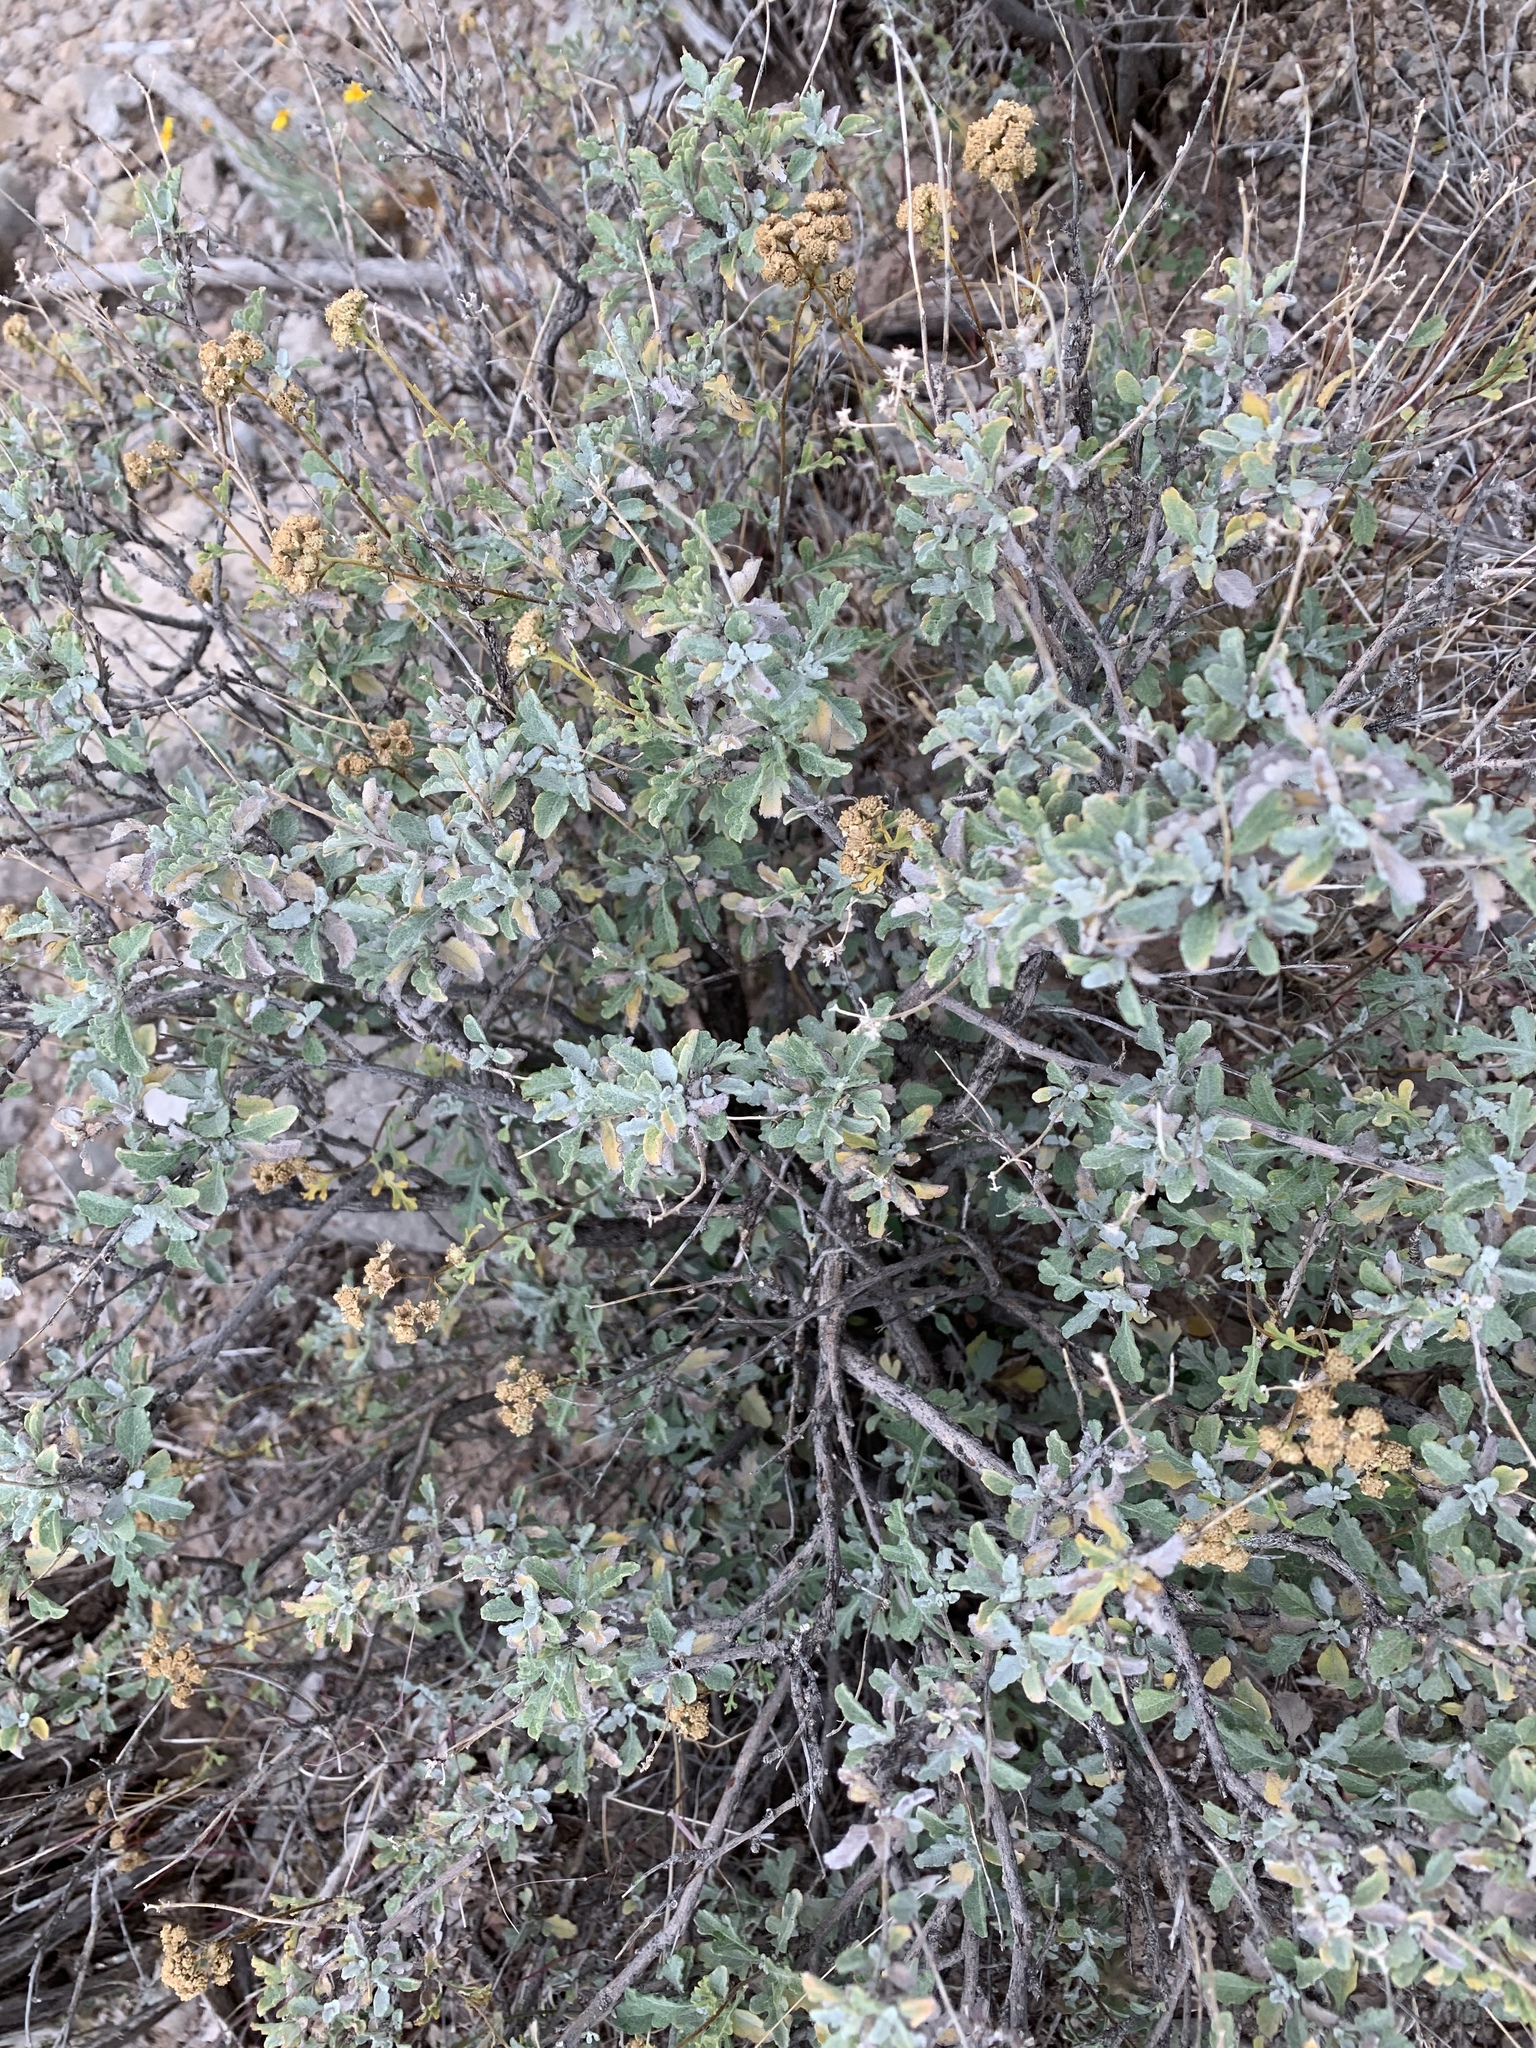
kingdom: Plantae
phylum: Tracheophyta
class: Magnoliopsida
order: Asterales
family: Asteraceae
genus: Parthenium
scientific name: Parthenium incanum
